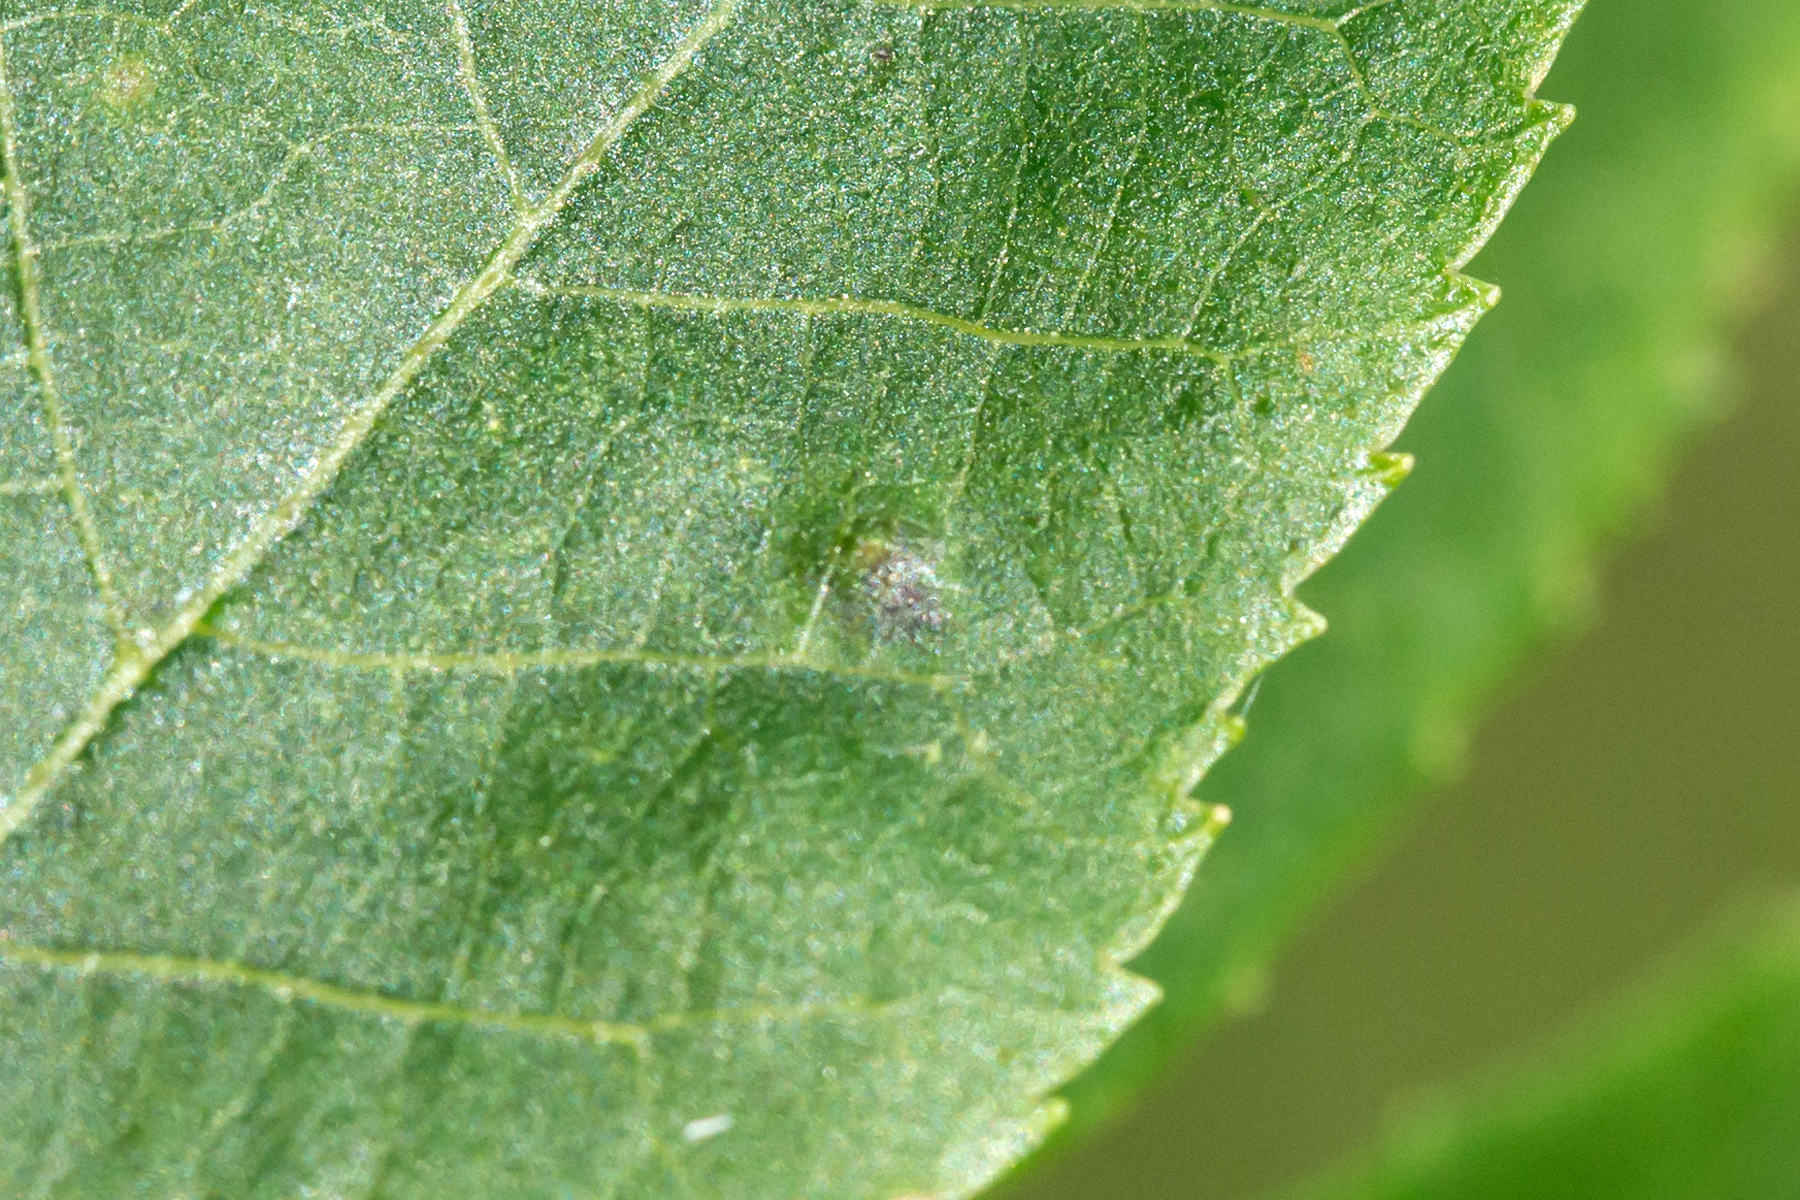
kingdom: Animalia
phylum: Arthropoda
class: Insecta
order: Diptera
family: Cecidomyiidae
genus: Caryomyia
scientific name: Caryomyia tubicola
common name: Hickory bullet gall midge
